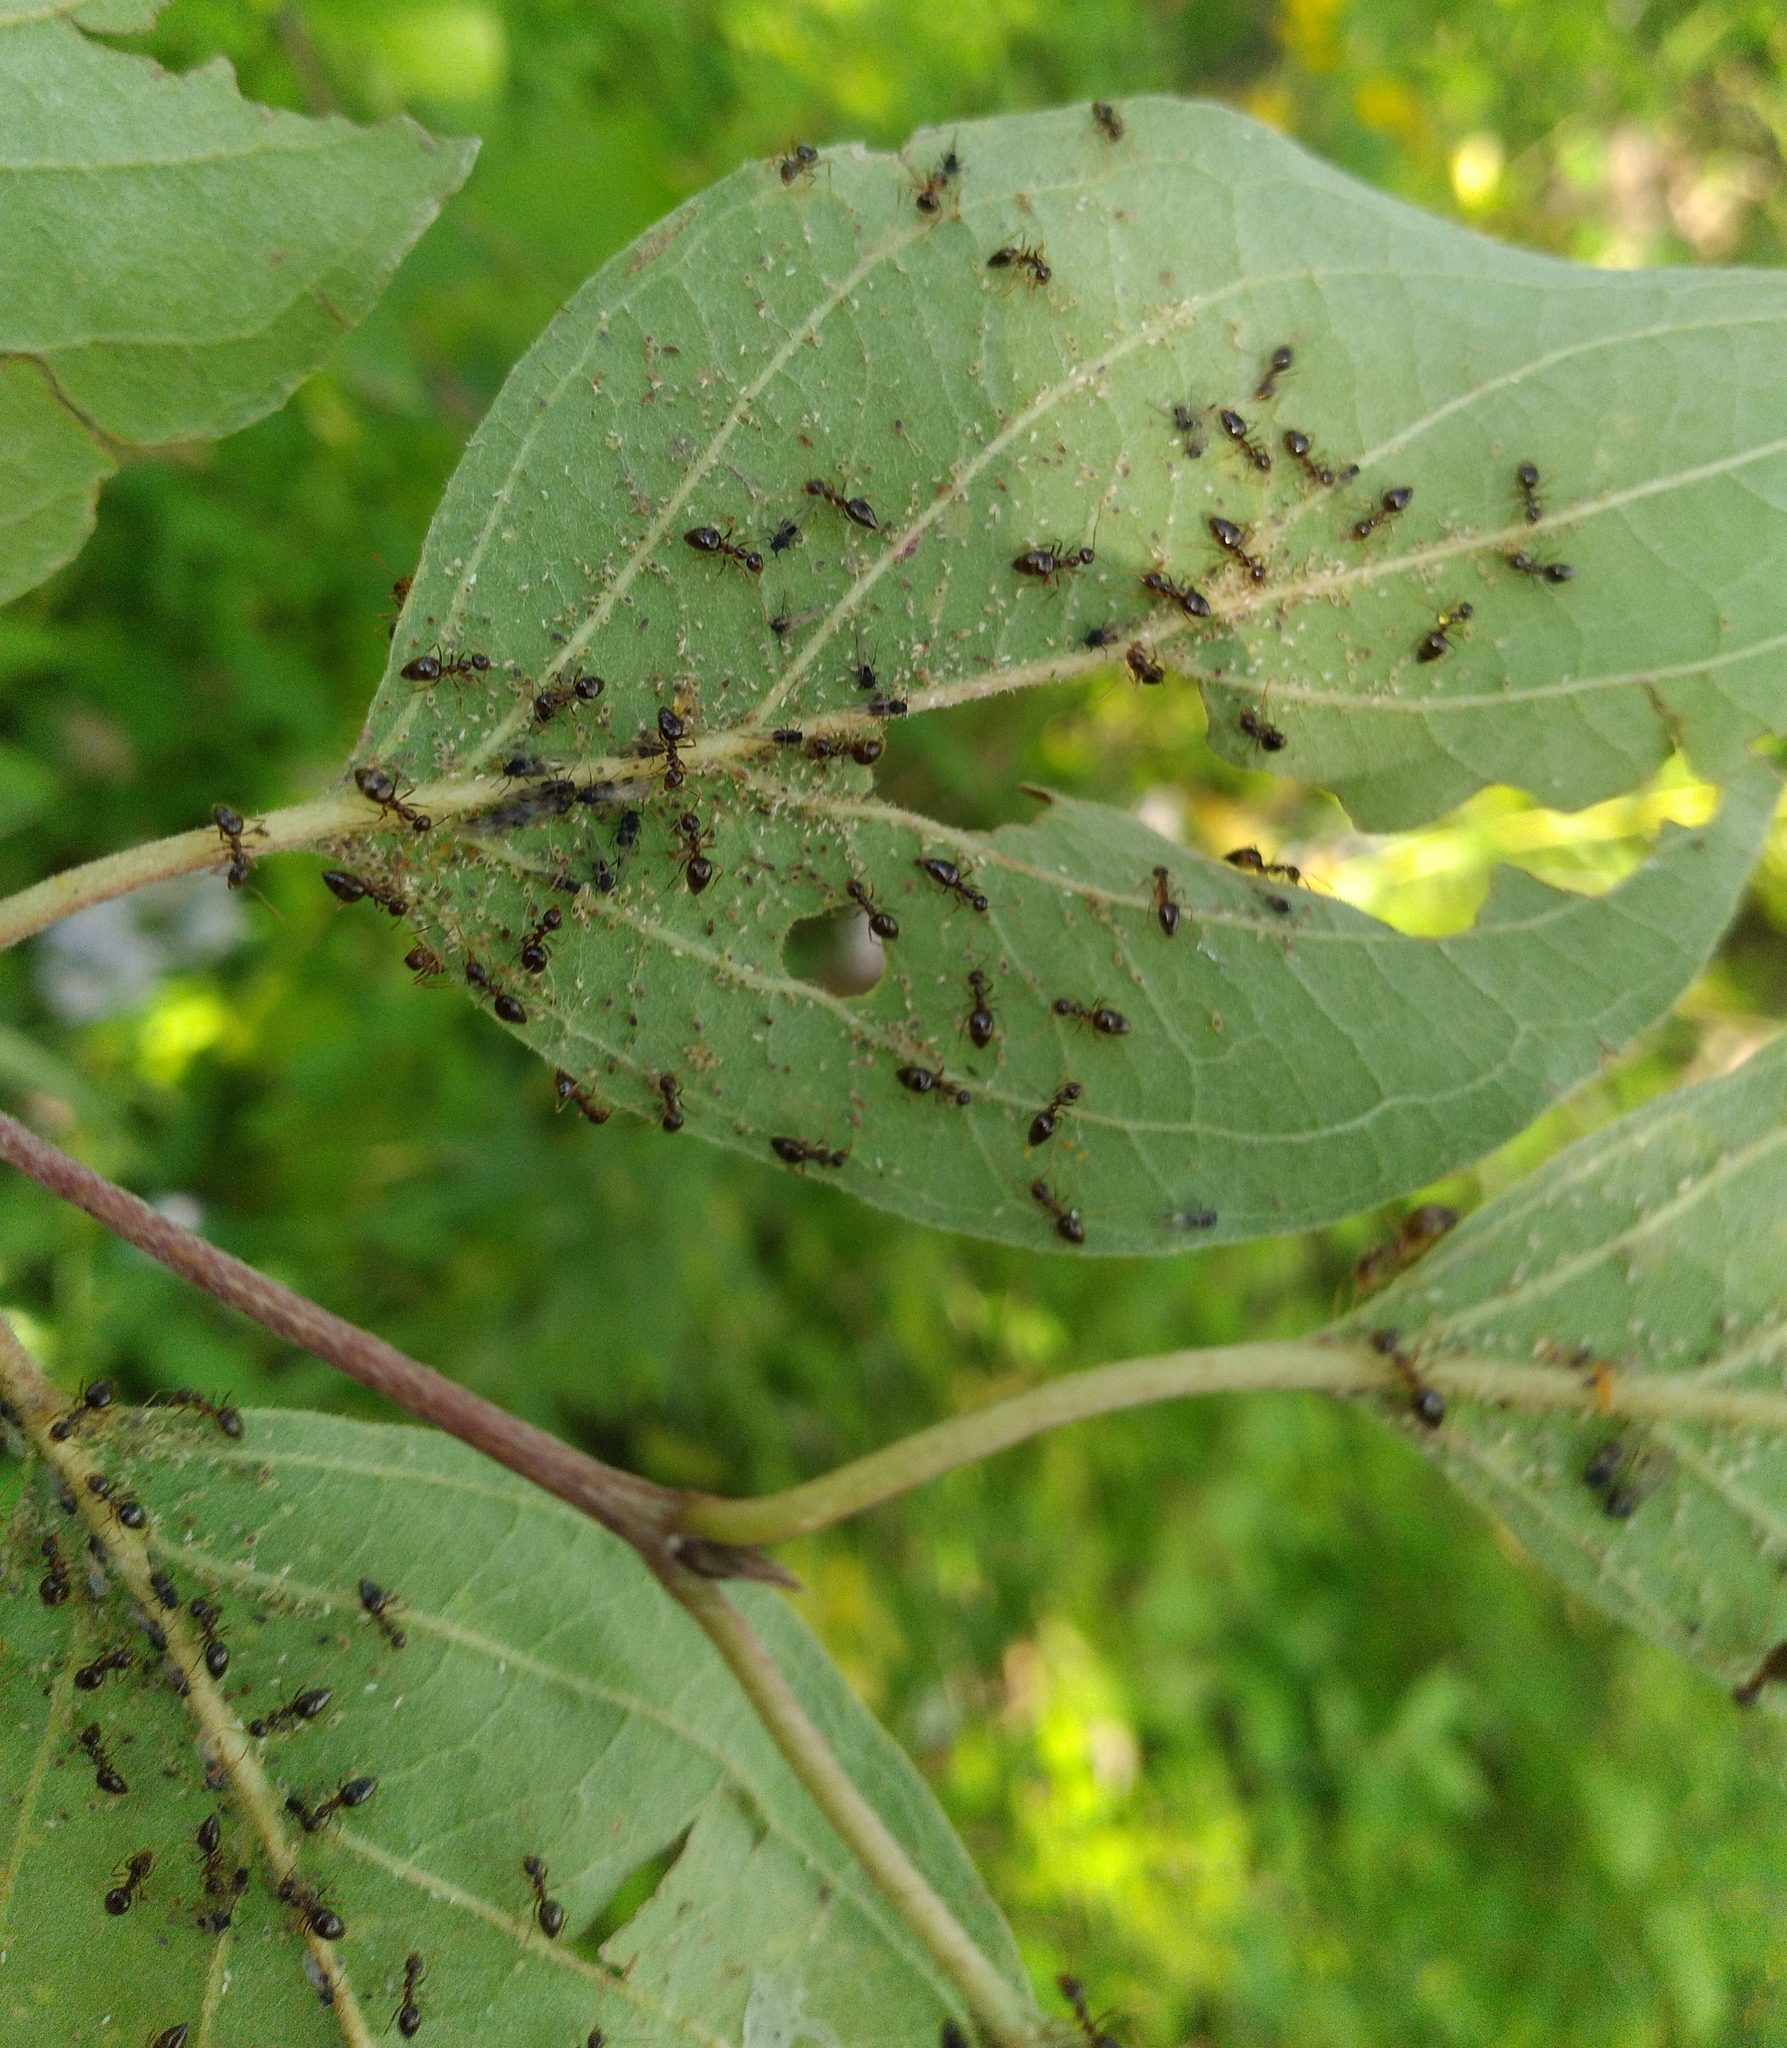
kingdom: Animalia
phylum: Arthropoda
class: Insecta
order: Hymenoptera
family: Formicidae
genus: Prenolepis
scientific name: Prenolepis imparis
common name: Small honey ant
